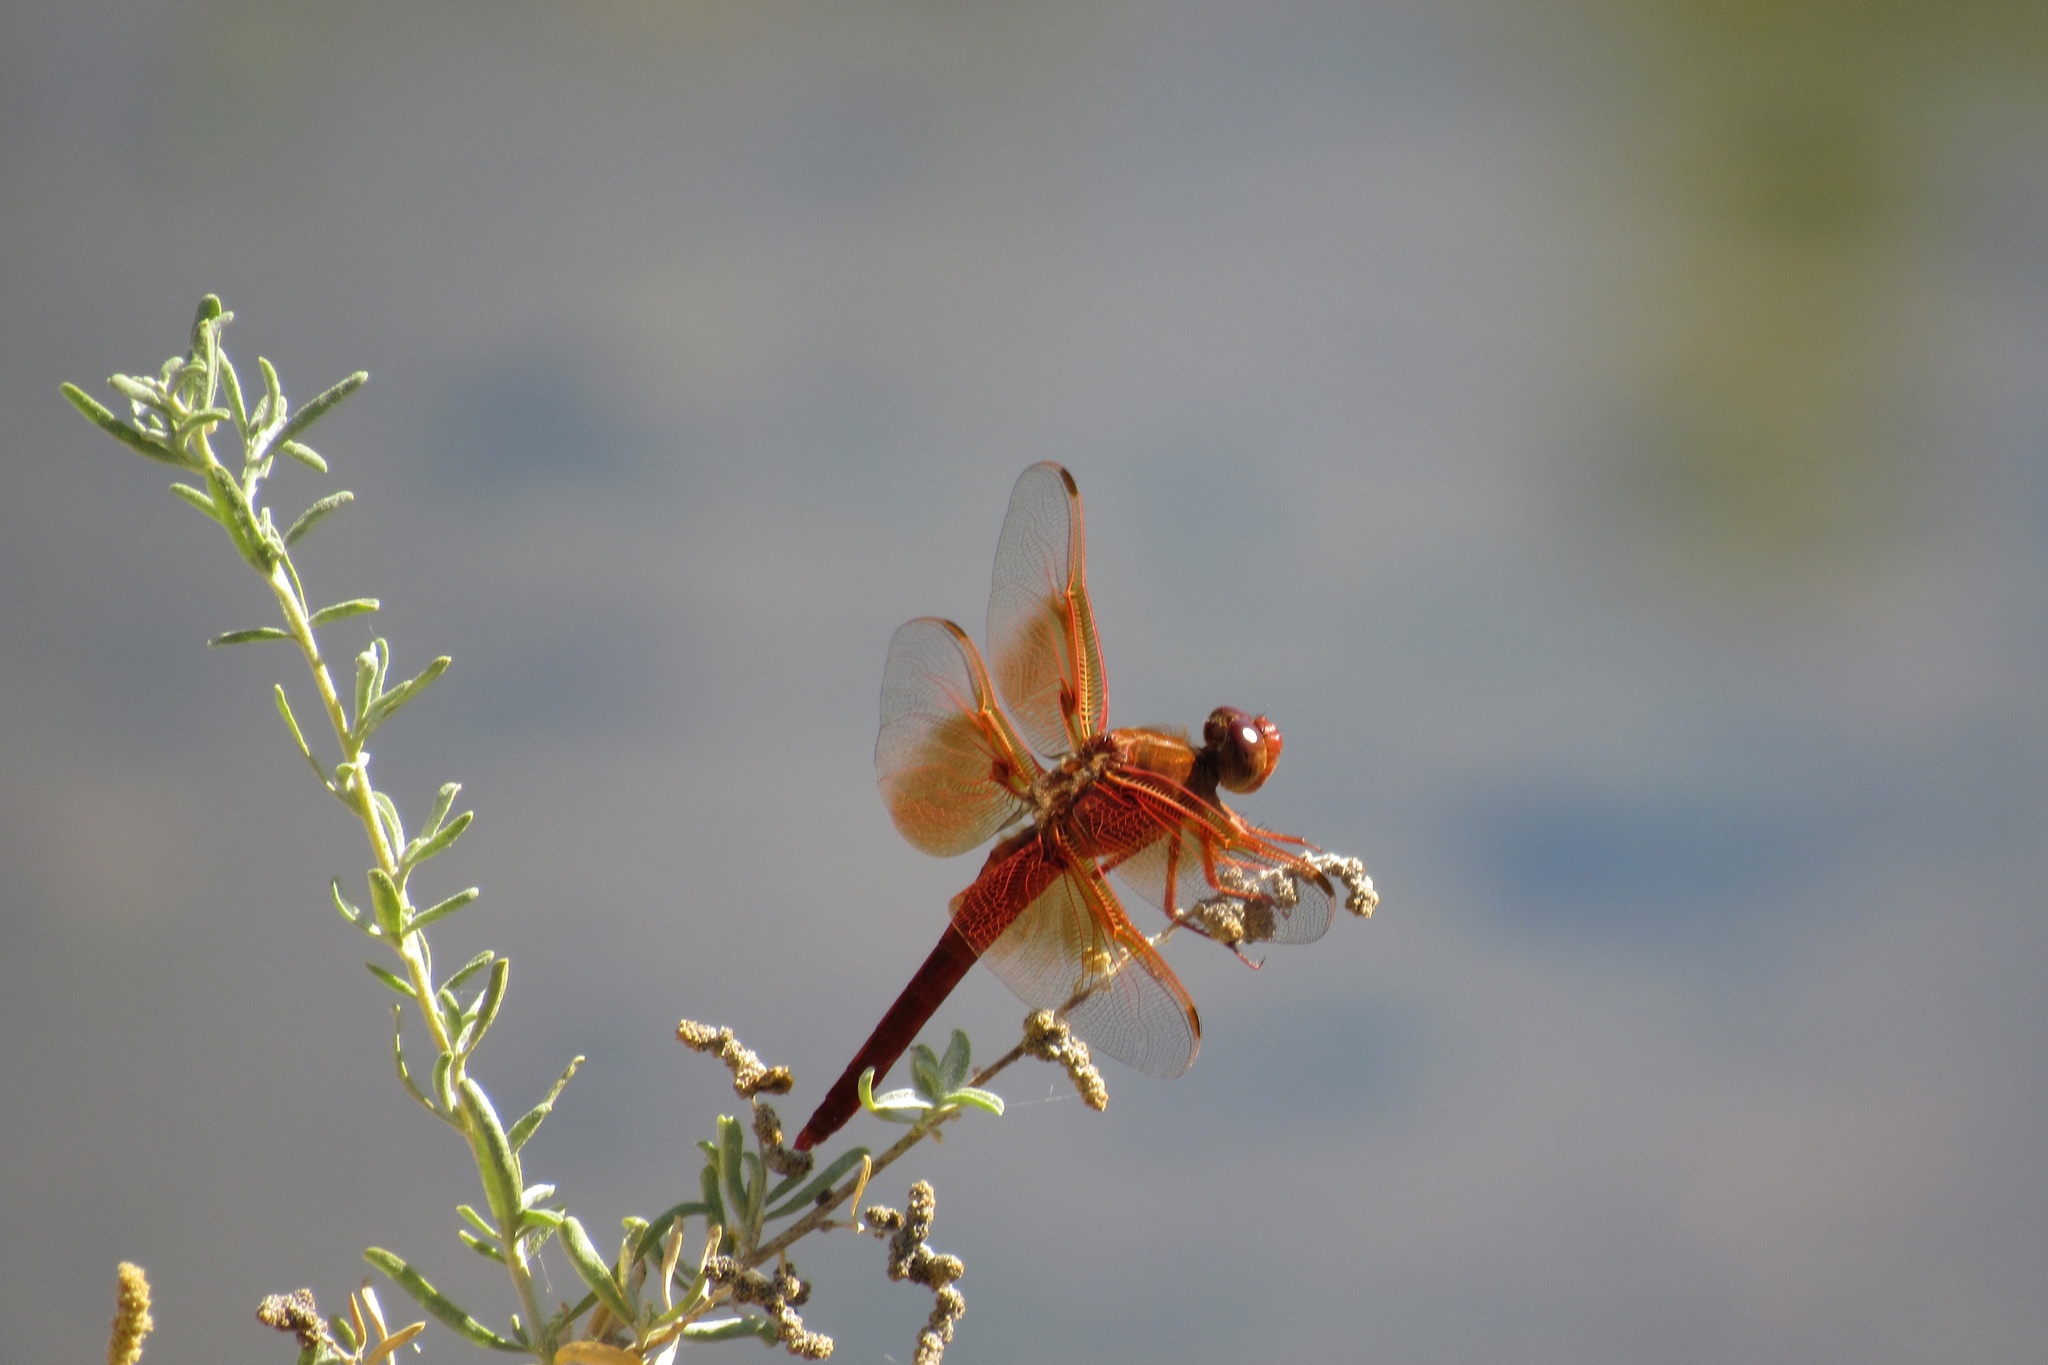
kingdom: Animalia
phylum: Arthropoda
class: Insecta
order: Odonata
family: Libellulidae
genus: Libellula
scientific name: Libellula saturata
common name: Flame skimmer
